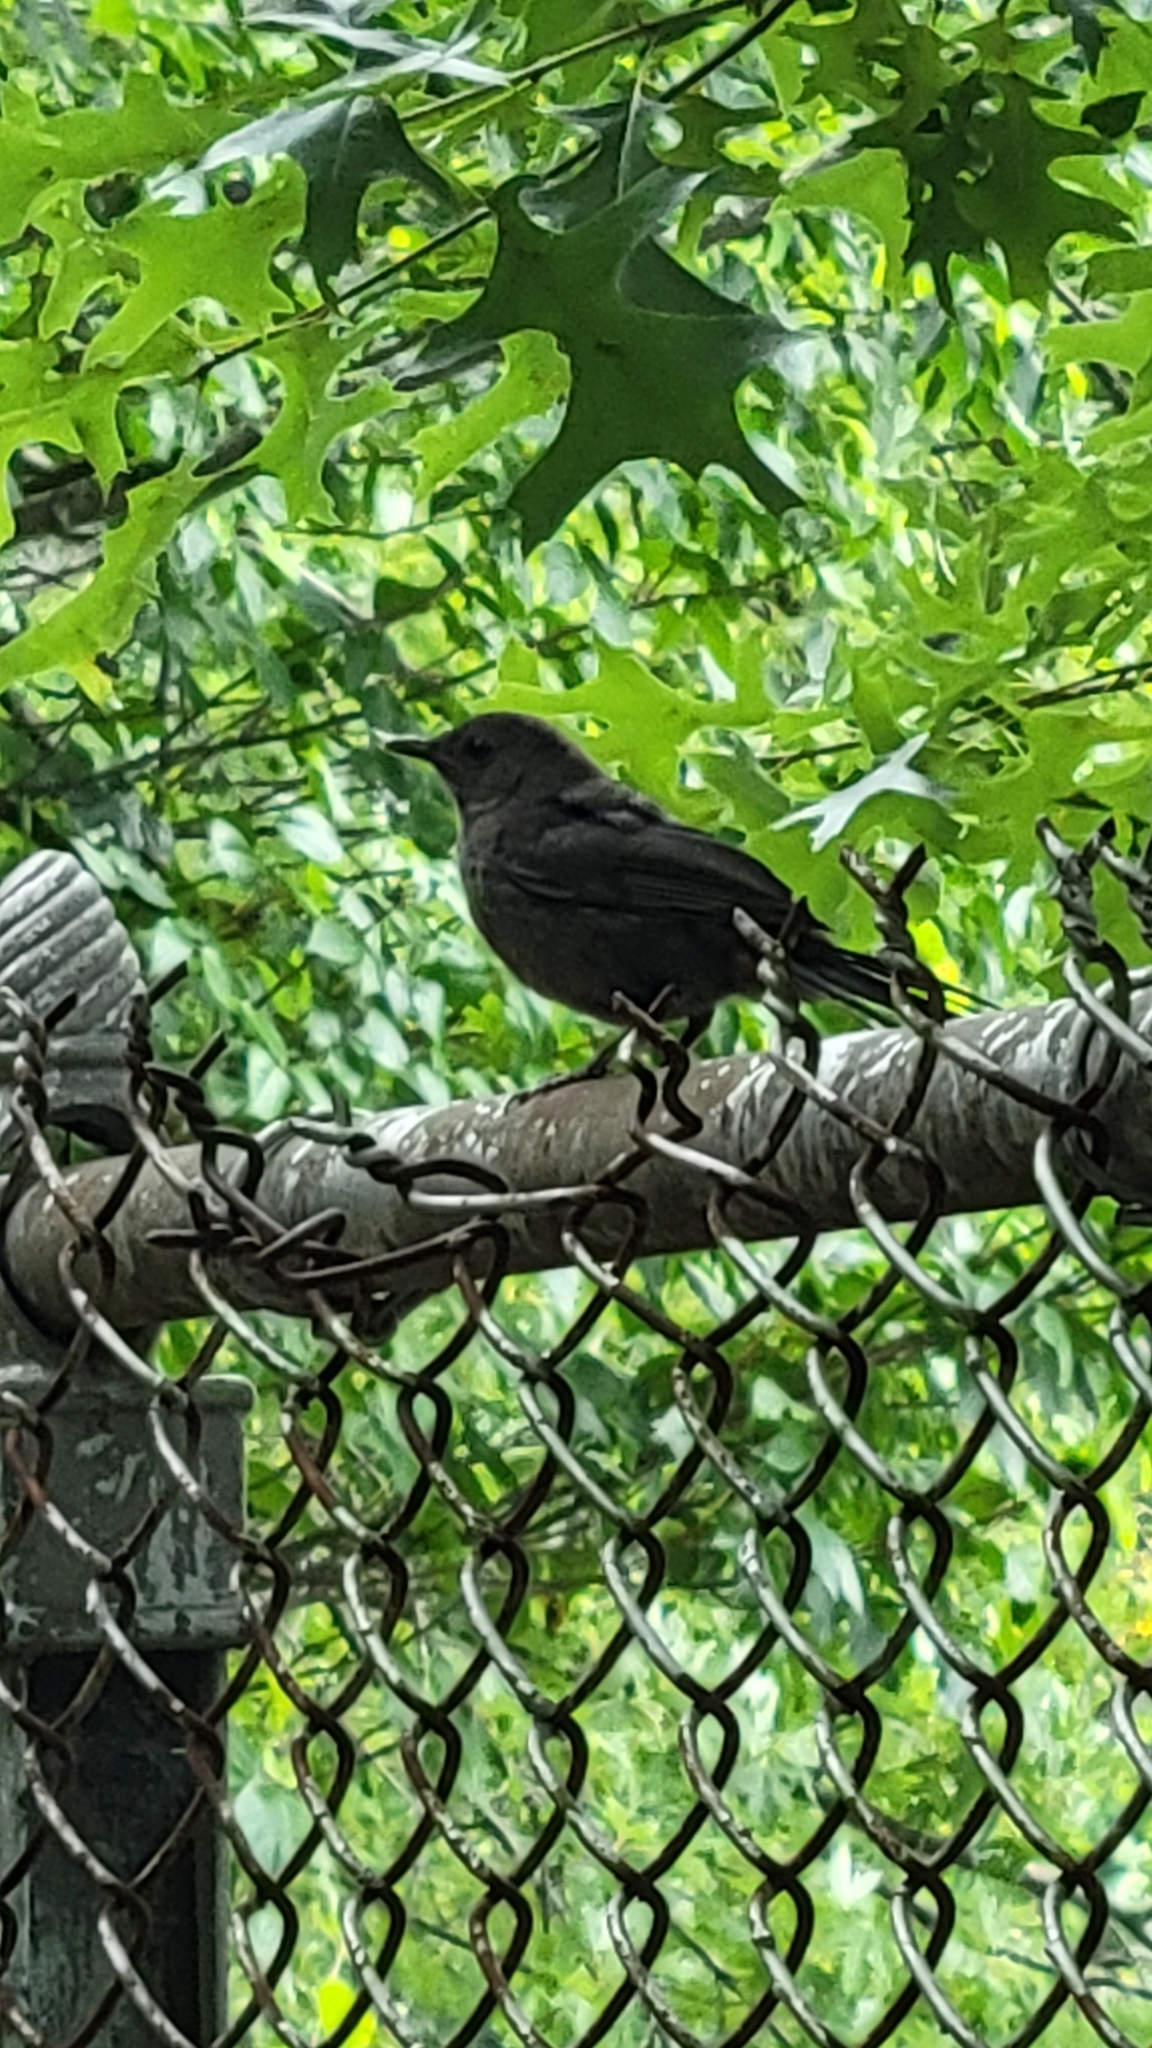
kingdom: Animalia
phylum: Chordata
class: Aves
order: Passeriformes
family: Mimidae
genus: Dumetella
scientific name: Dumetella carolinensis
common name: Gray catbird
